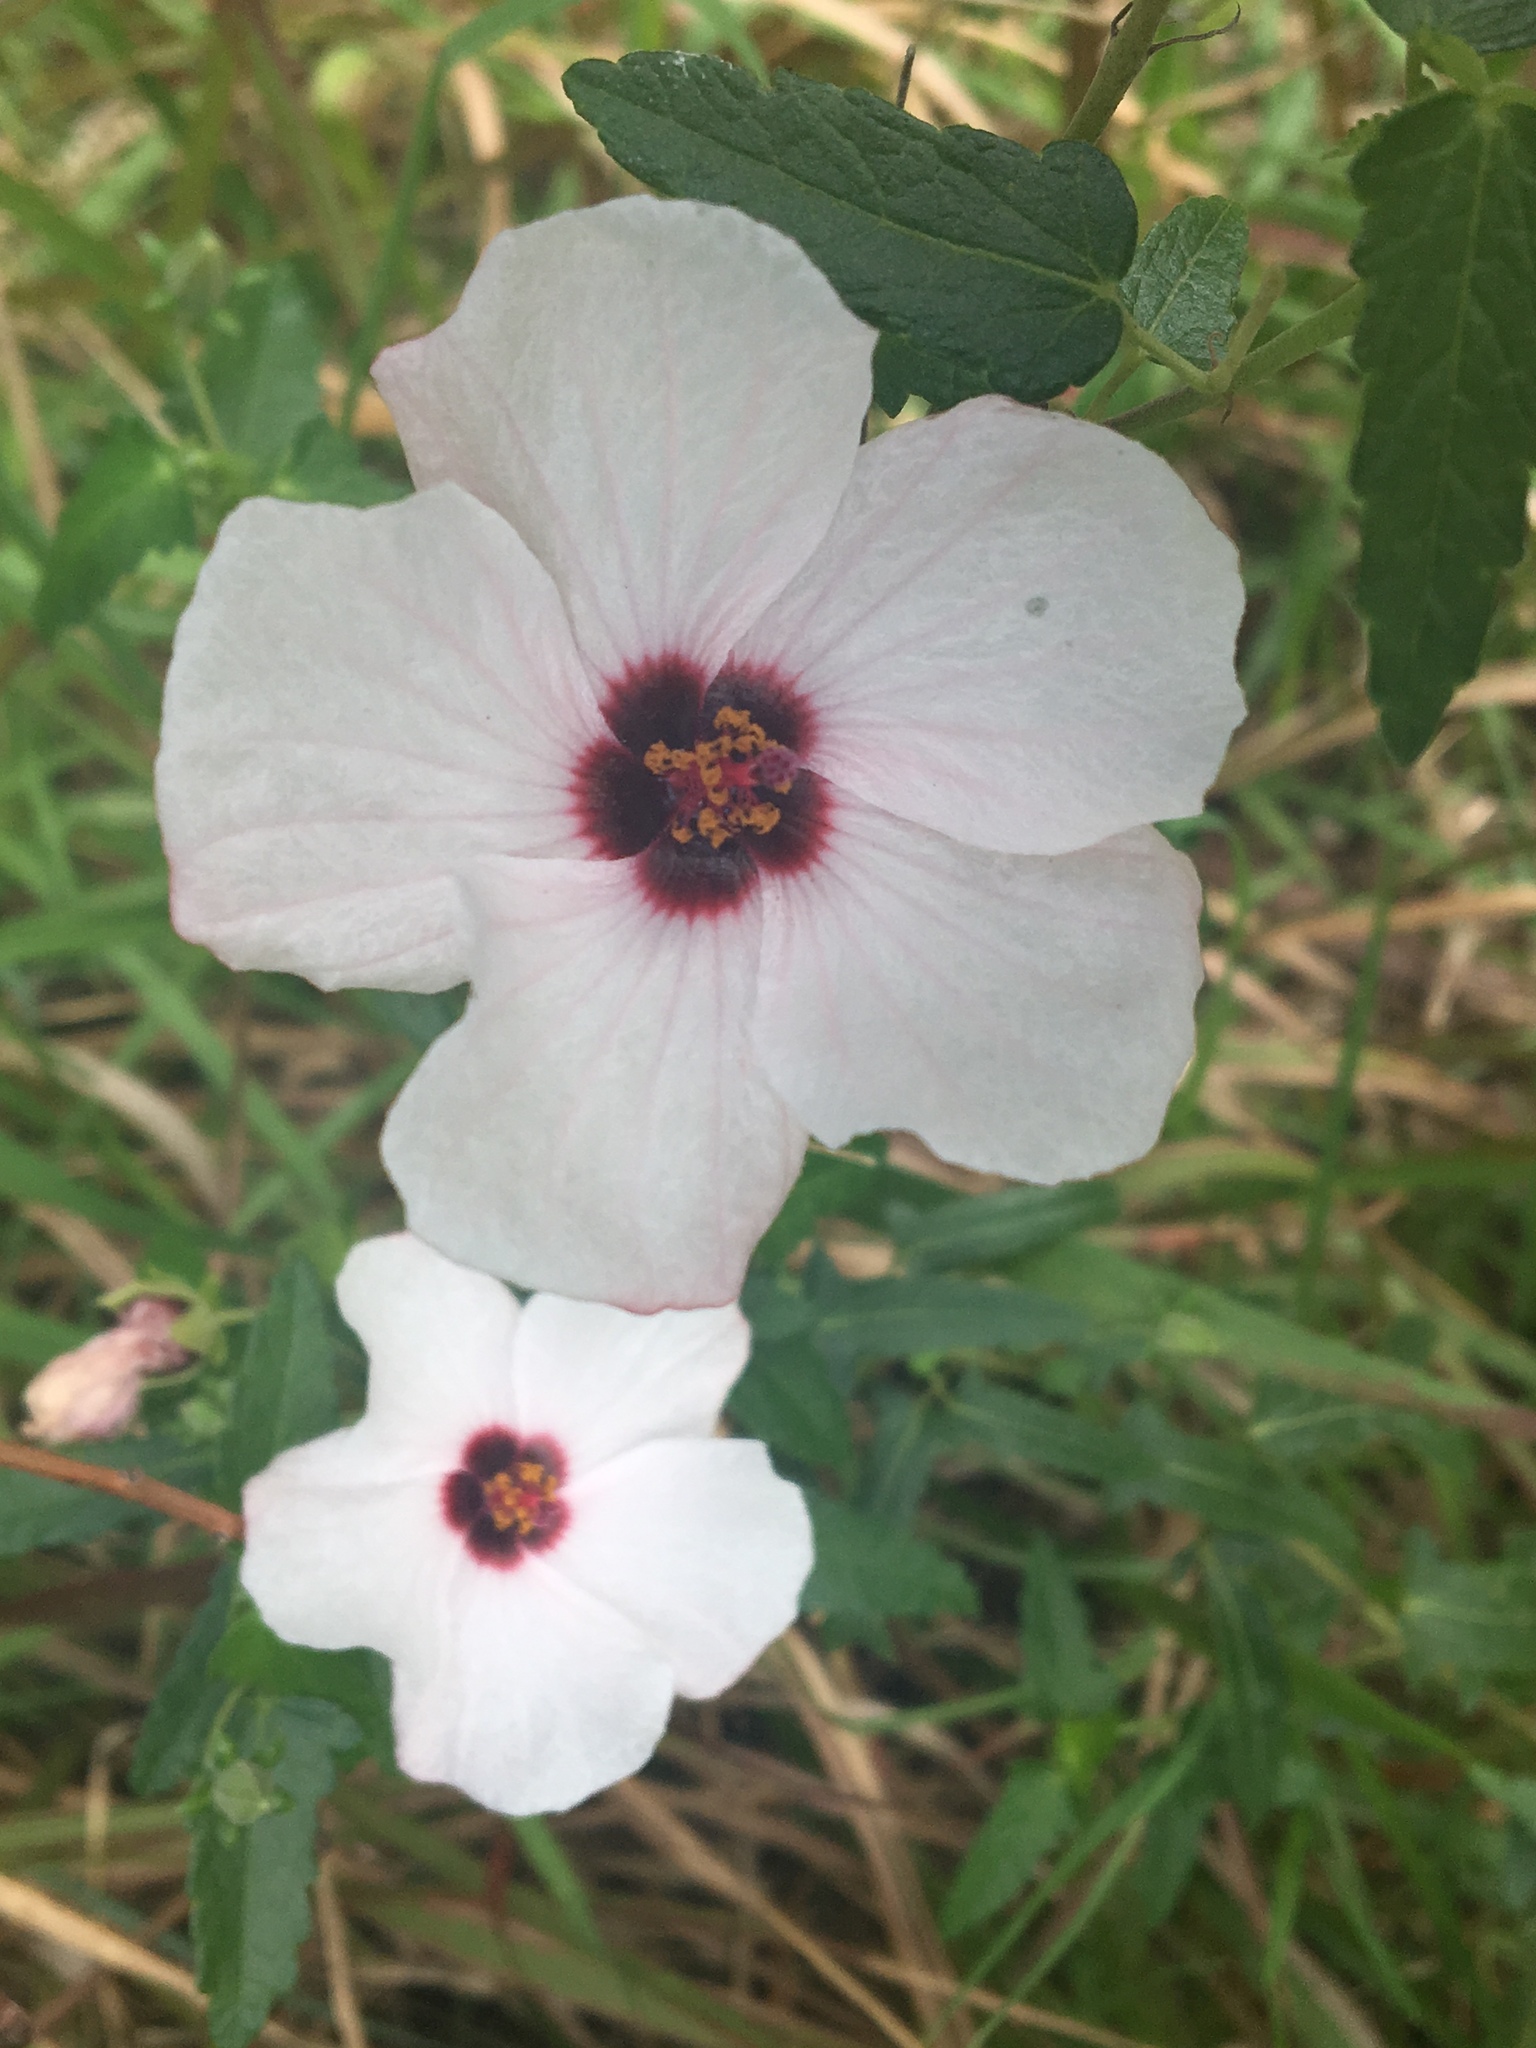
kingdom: Plantae
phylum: Tracheophyta
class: Magnoliopsida
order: Malvales
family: Malvaceae
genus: Pavonia
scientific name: Pavonia hastata
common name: Spearleaf swampmallow
